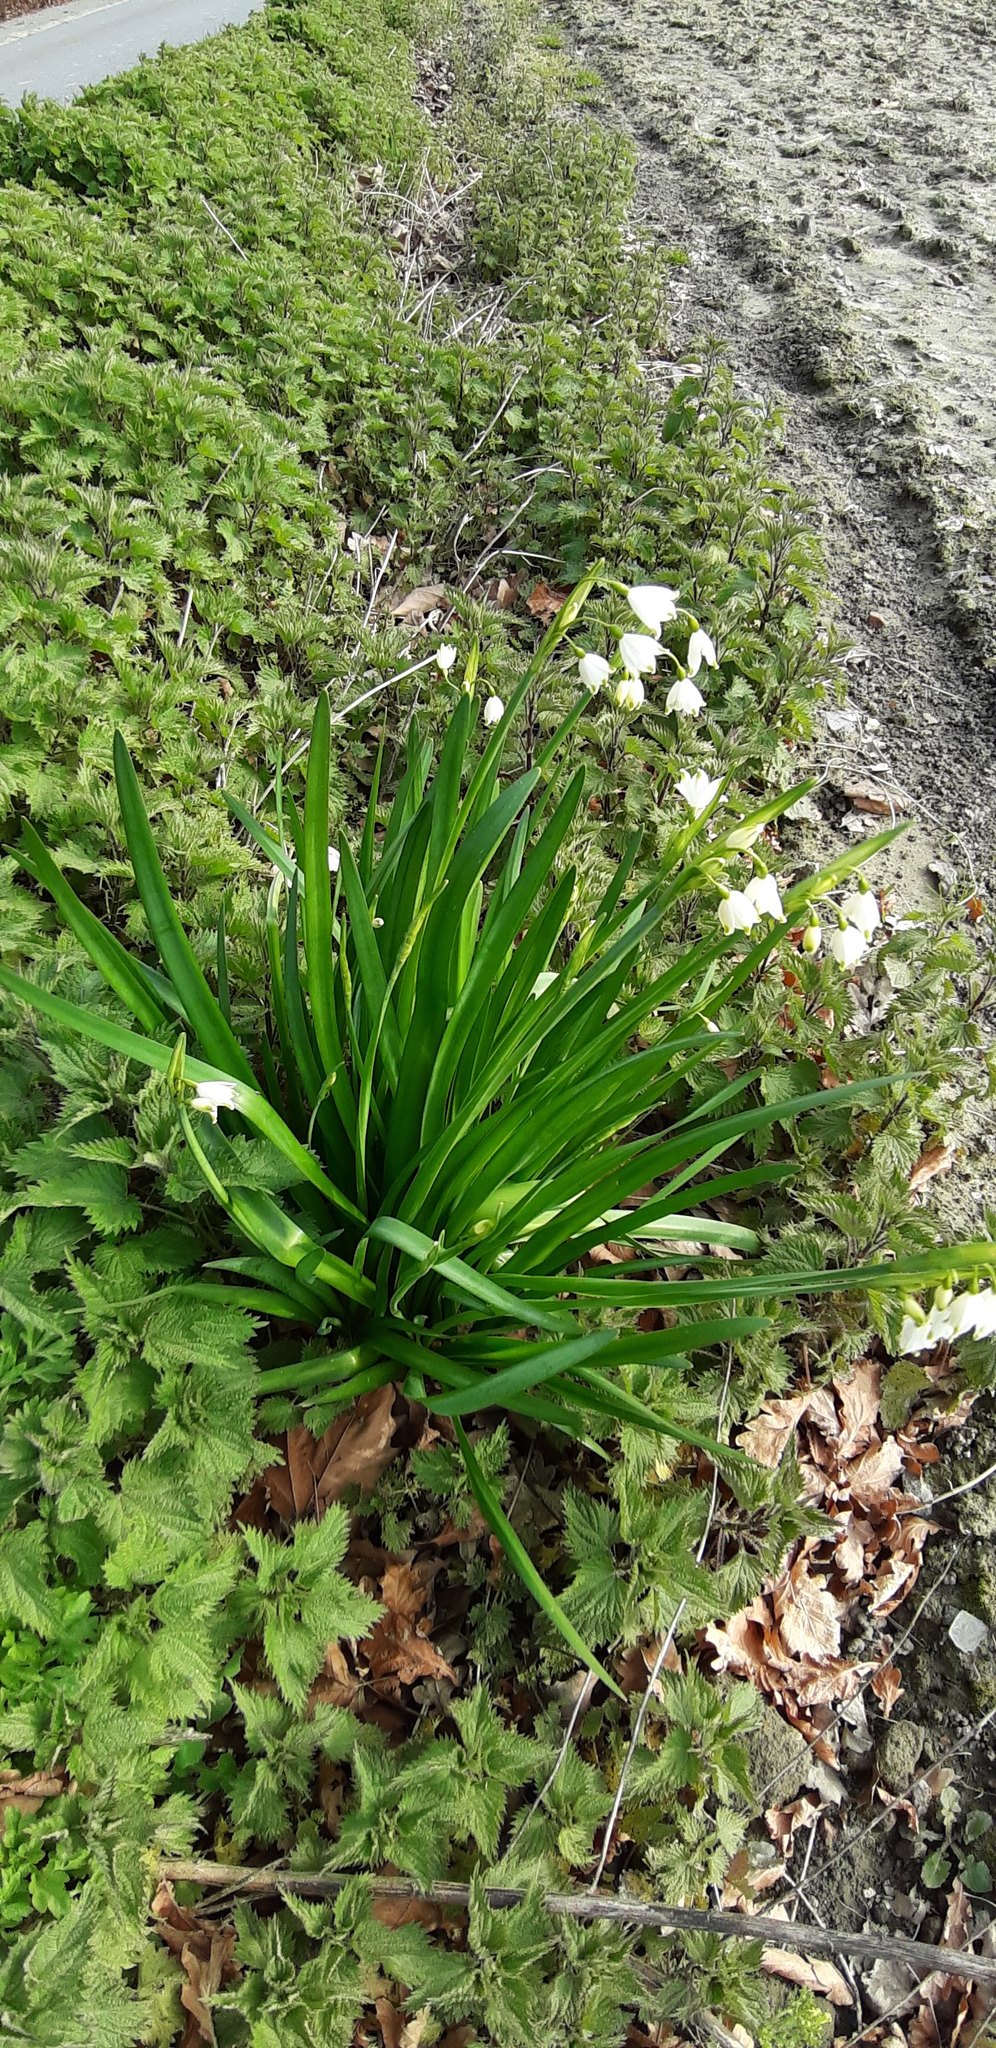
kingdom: Plantae
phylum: Tracheophyta
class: Liliopsida
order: Asparagales
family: Amaryllidaceae
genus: Leucojum
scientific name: Leucojum aestivum
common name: Summer snowflake
